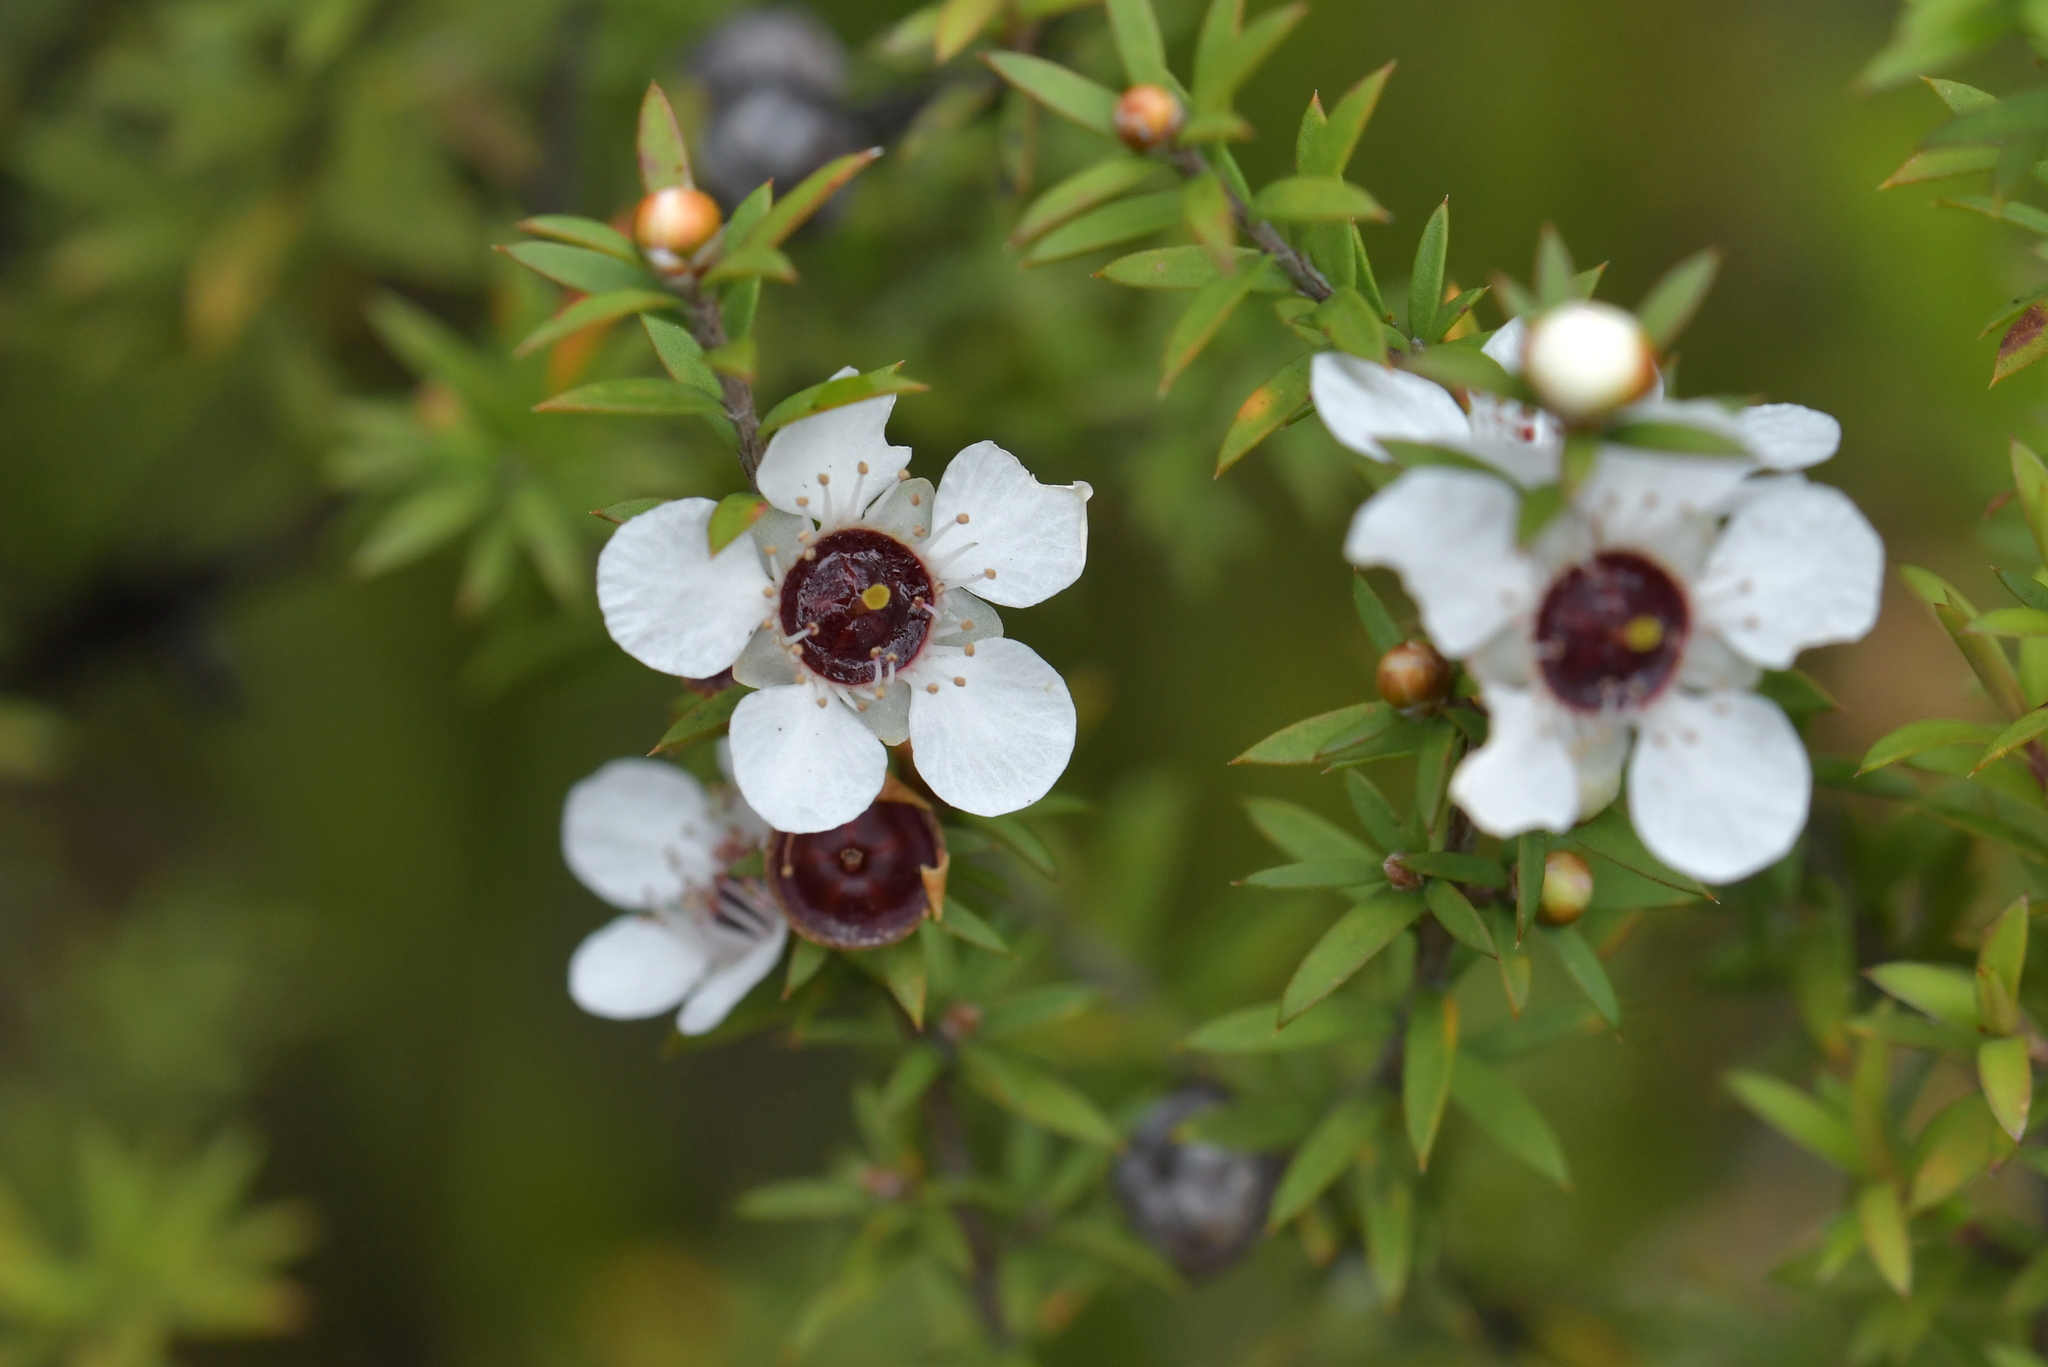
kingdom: Plantae
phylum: Tracheophyta
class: Magnoliopsida
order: Myrtales
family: Myrtaceae
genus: Leptospermum
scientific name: Leptospermum scoparium
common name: Broom tea-tree
